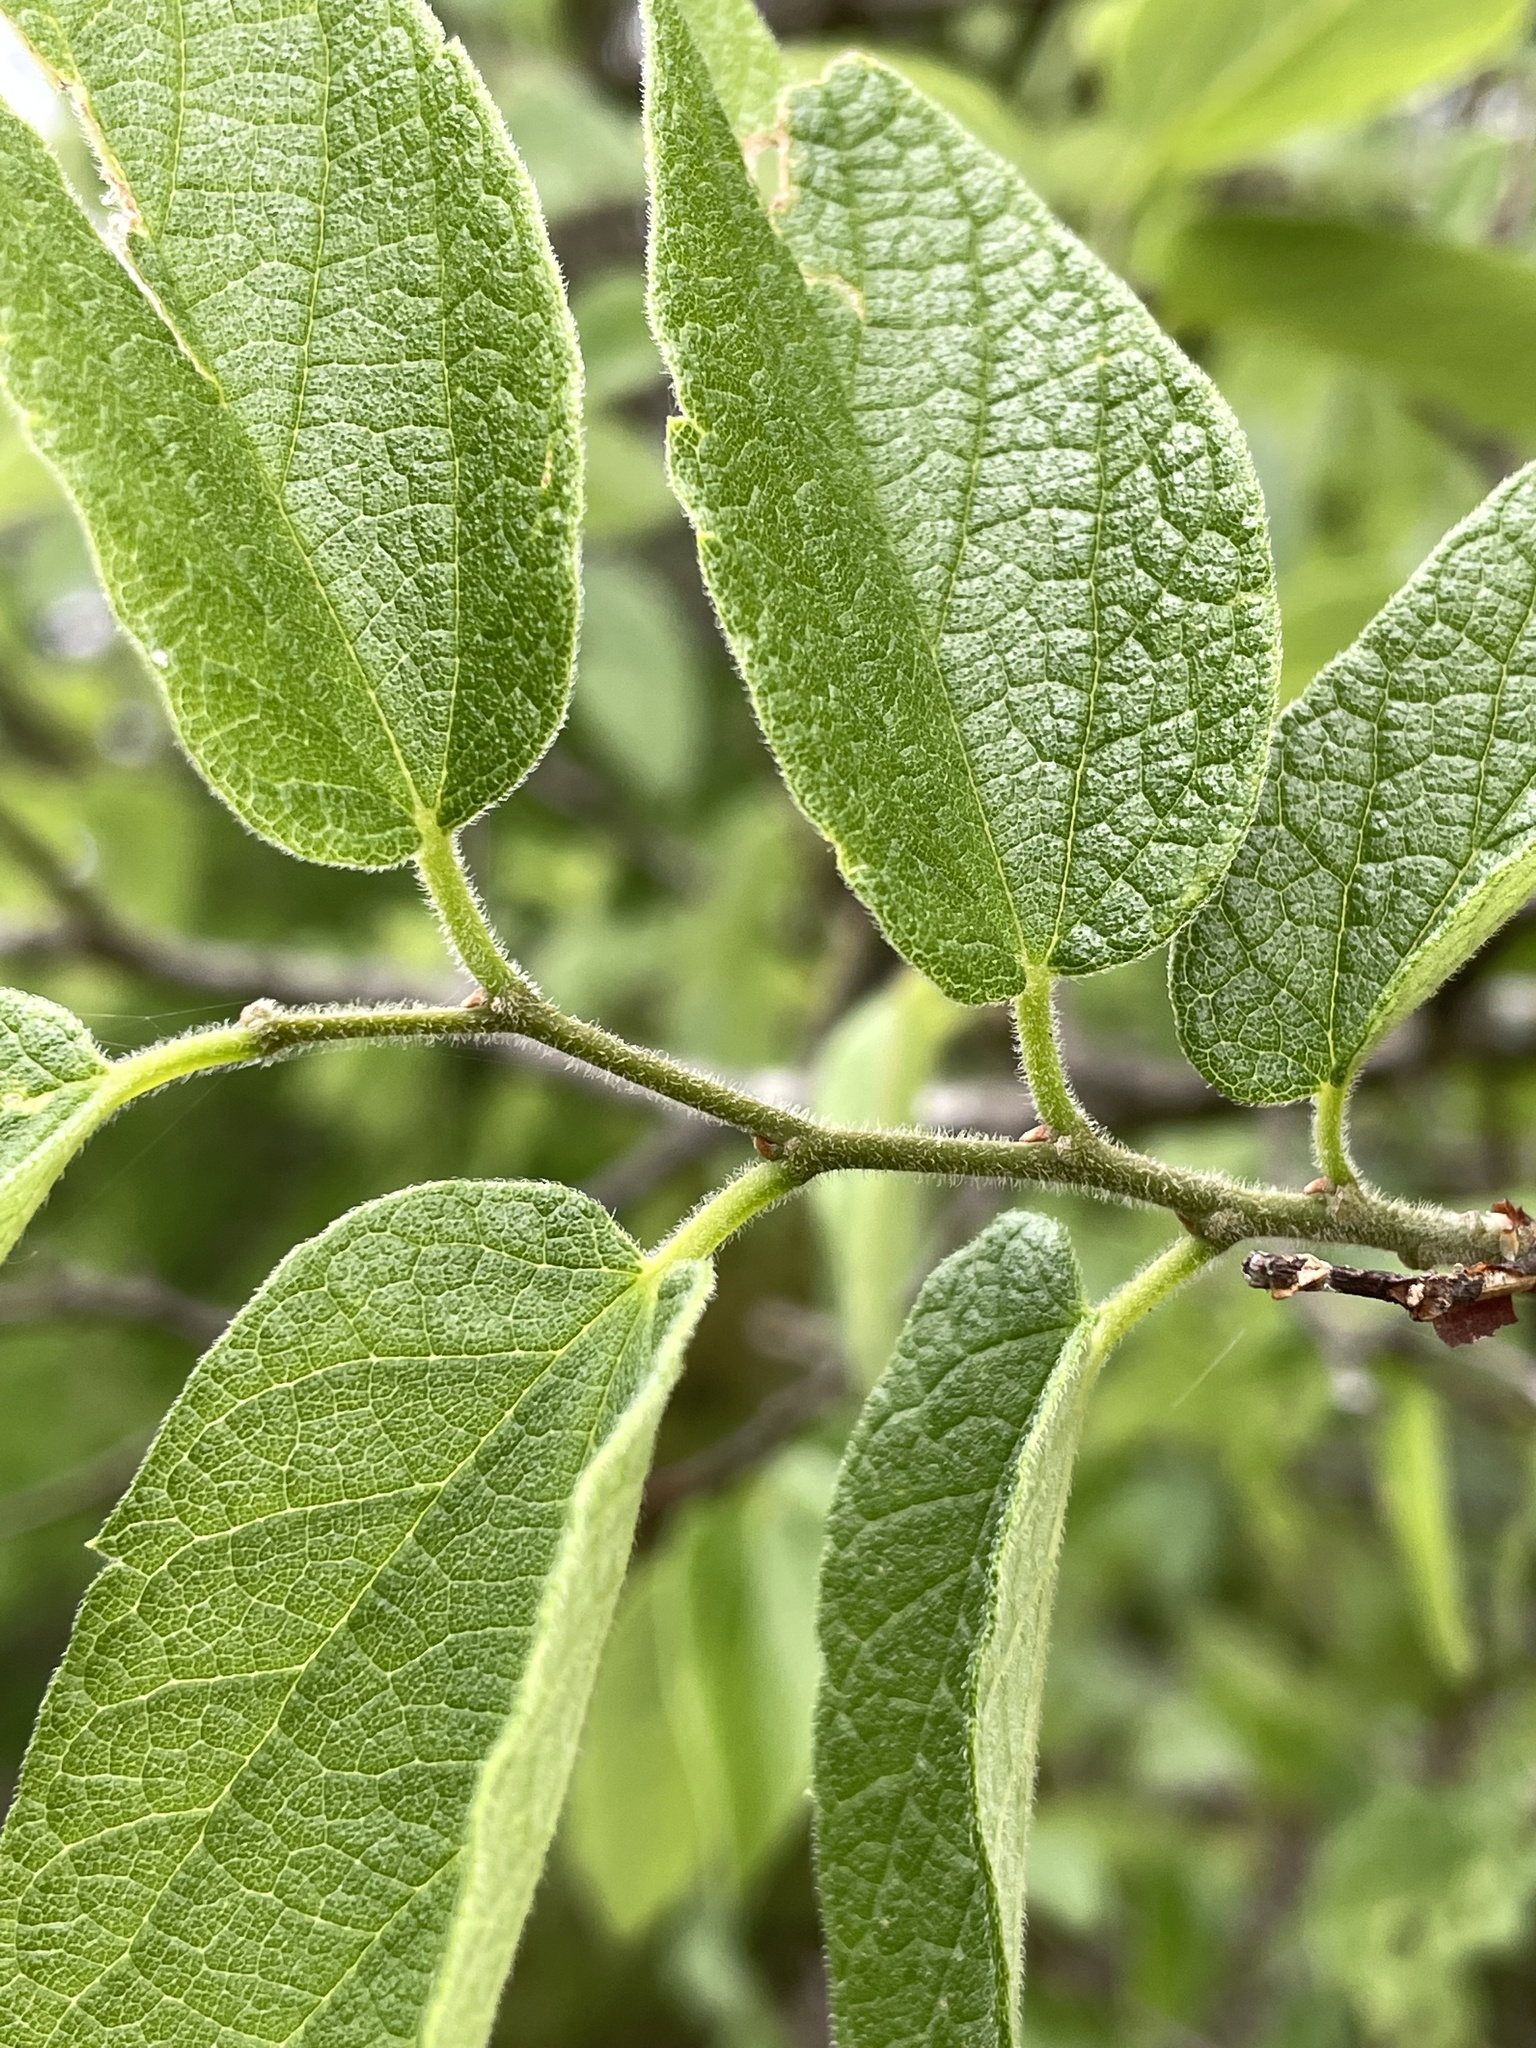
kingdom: Plantae
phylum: Tracheophyta
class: Magnoliopsida
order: Rosales
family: Cannabaceae
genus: Celtis
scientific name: Celtis reticulata
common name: Netleaf hackberry
